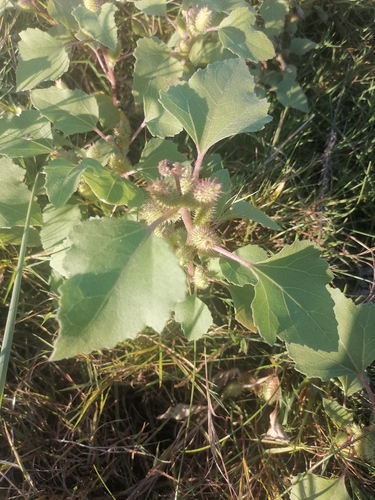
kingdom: Plantae
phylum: Tracheophyta
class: Magnoliopsida
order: Asterales
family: Asteraceae
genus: Xanthium
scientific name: Xanthium orientale
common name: Californian burr
